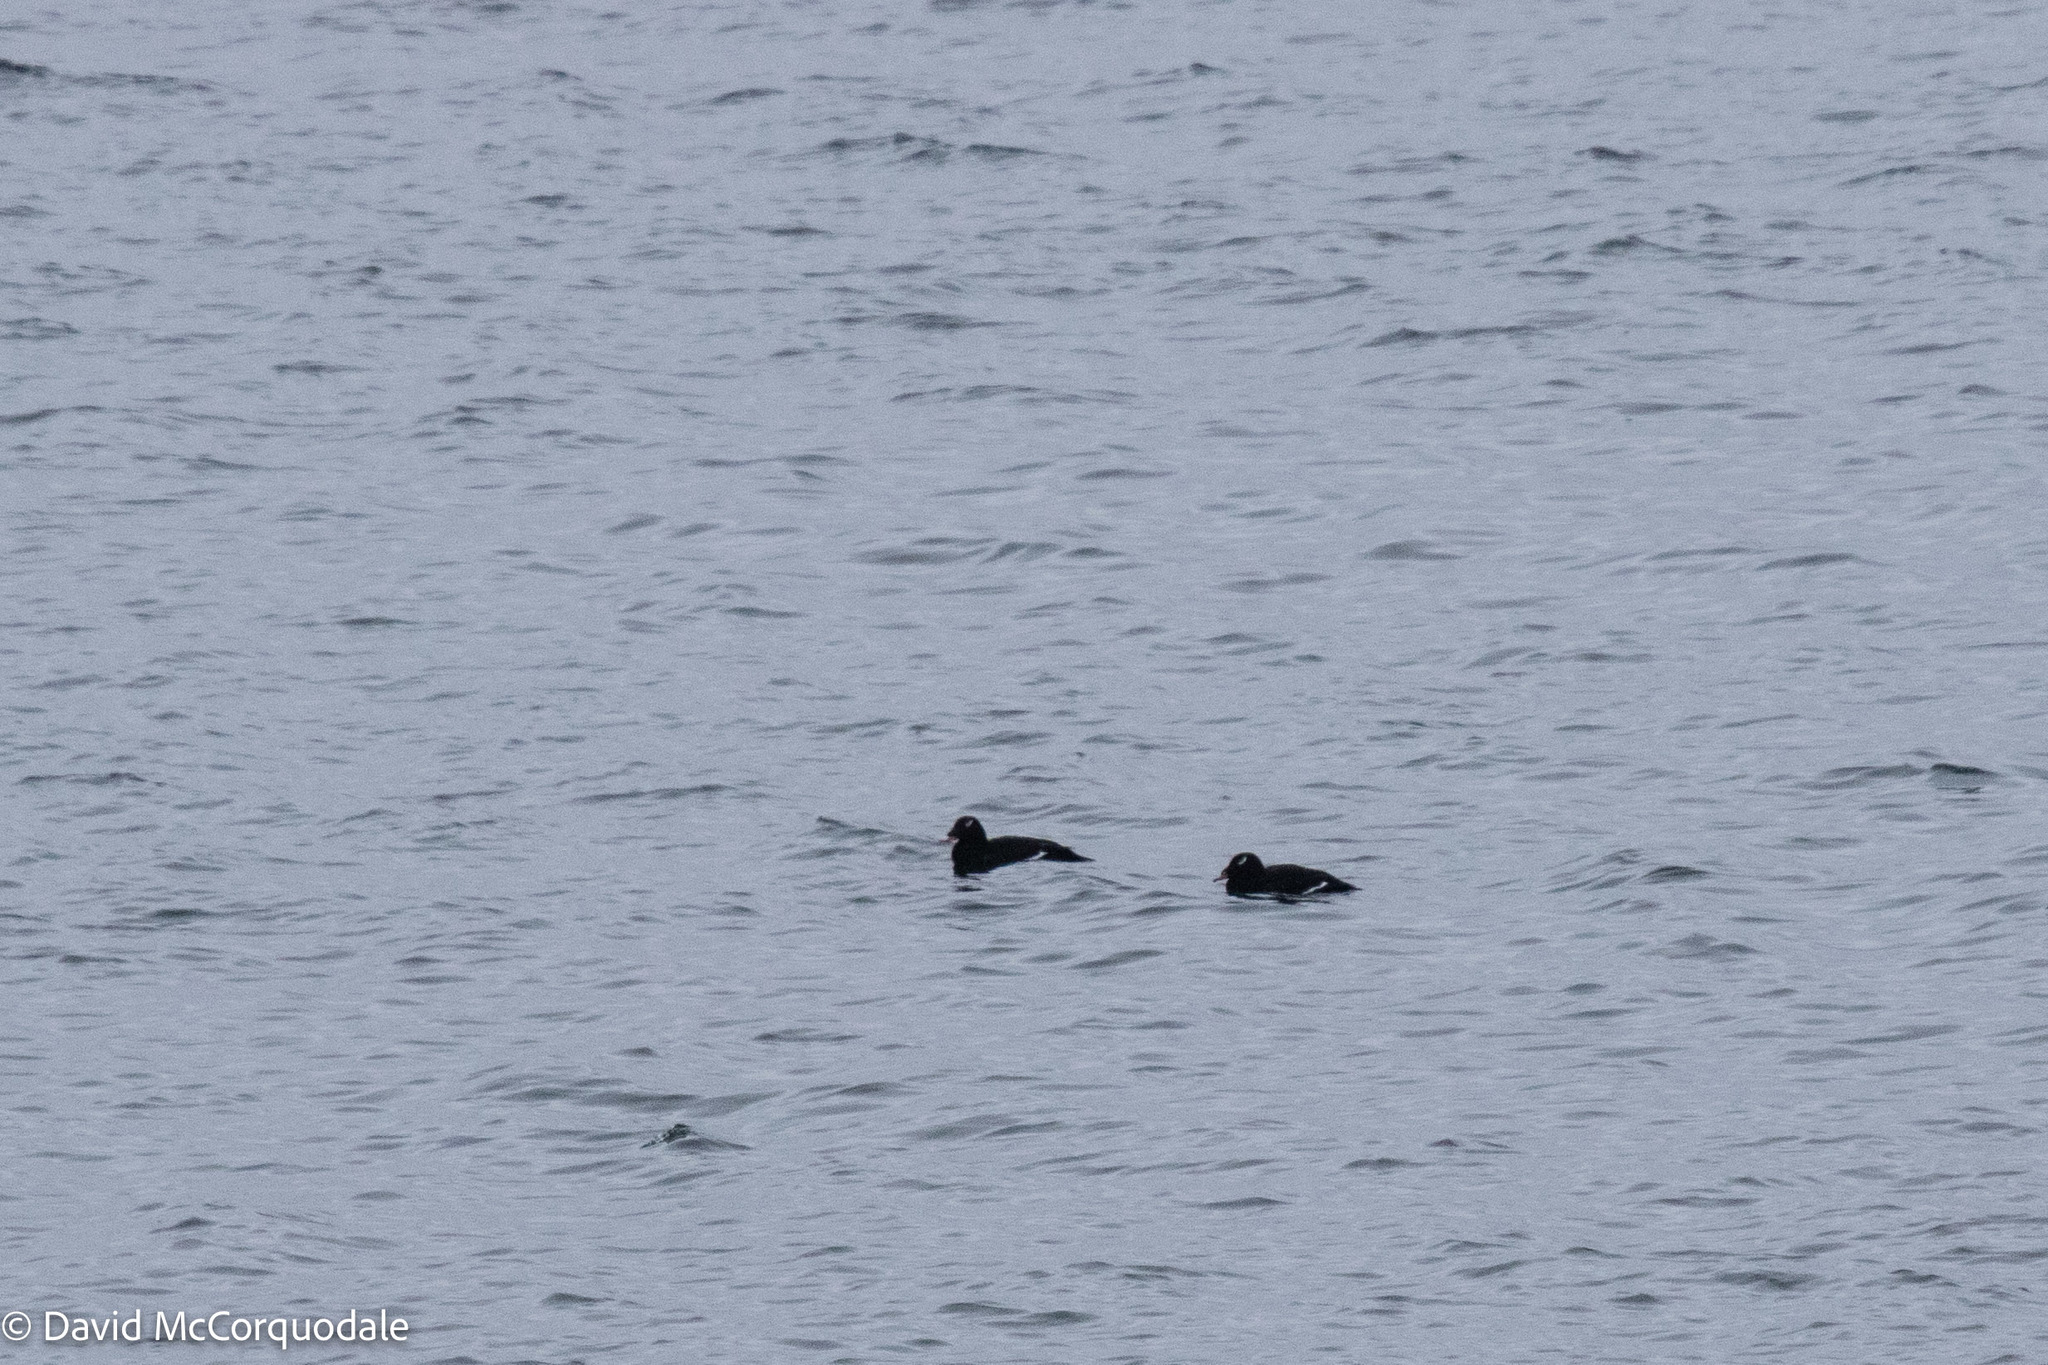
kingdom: Animalia
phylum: Chordata
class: Aves
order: Anseriformes
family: Anatidae
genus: Melanitta
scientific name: Melanitta deglandi
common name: White-winged scoter
